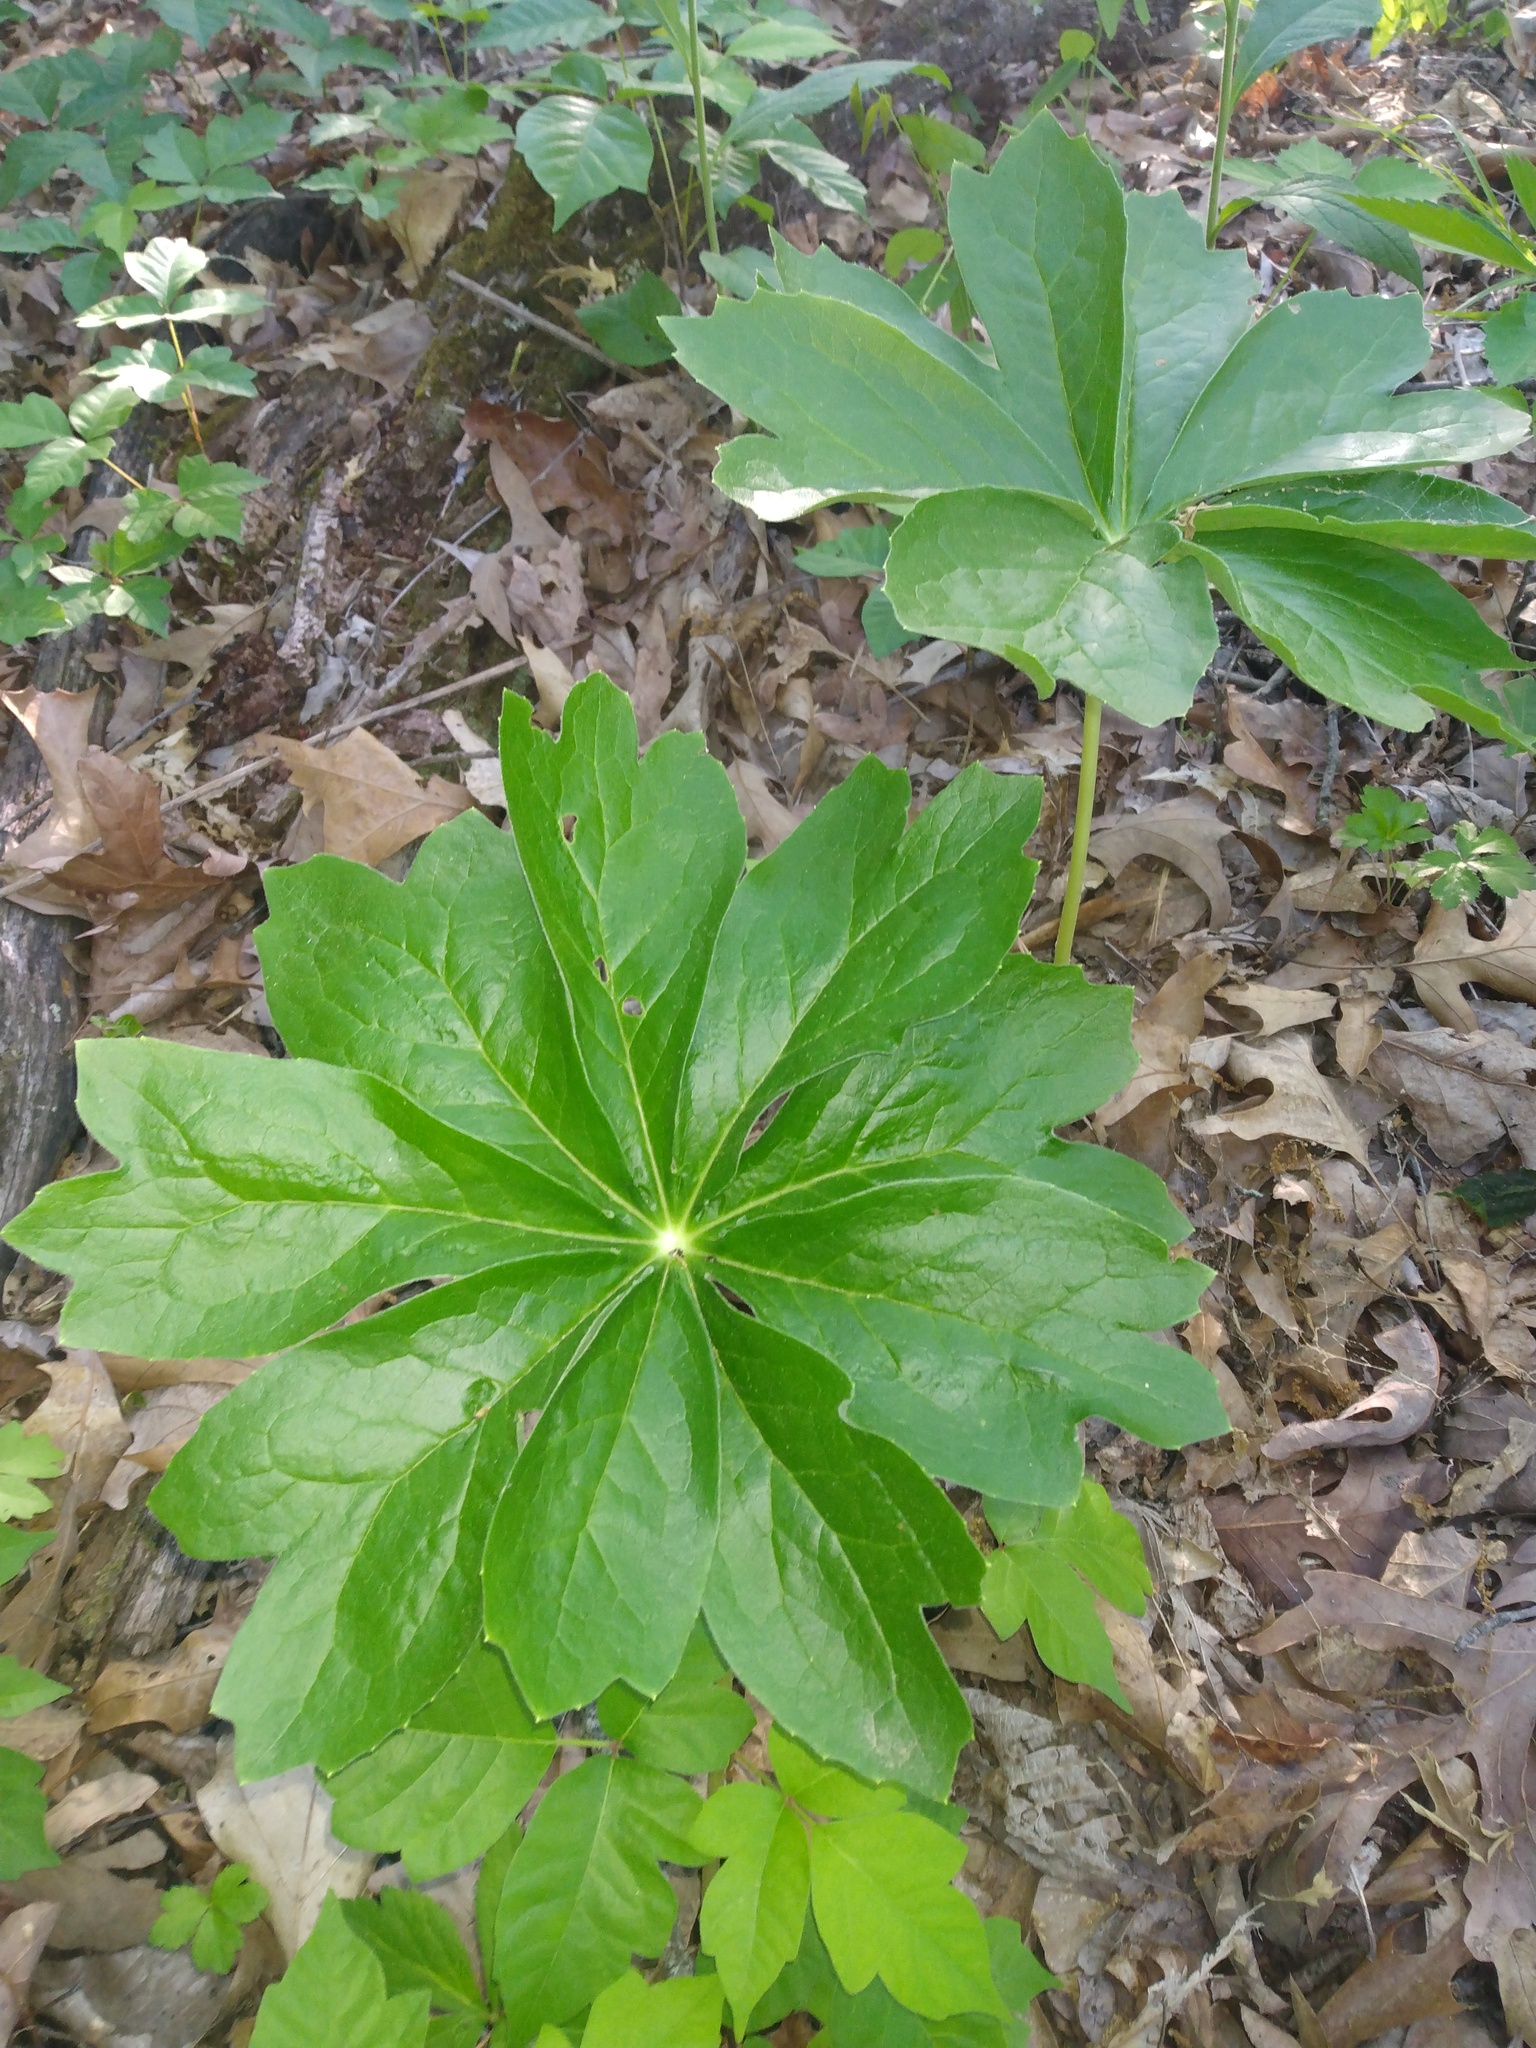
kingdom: Plantae
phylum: Tracheophyta
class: Magnoliopsida
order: Ranunculales
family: Berberidaceae
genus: Podophyllum
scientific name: Podophyllum peltatum
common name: Wild mandrake
